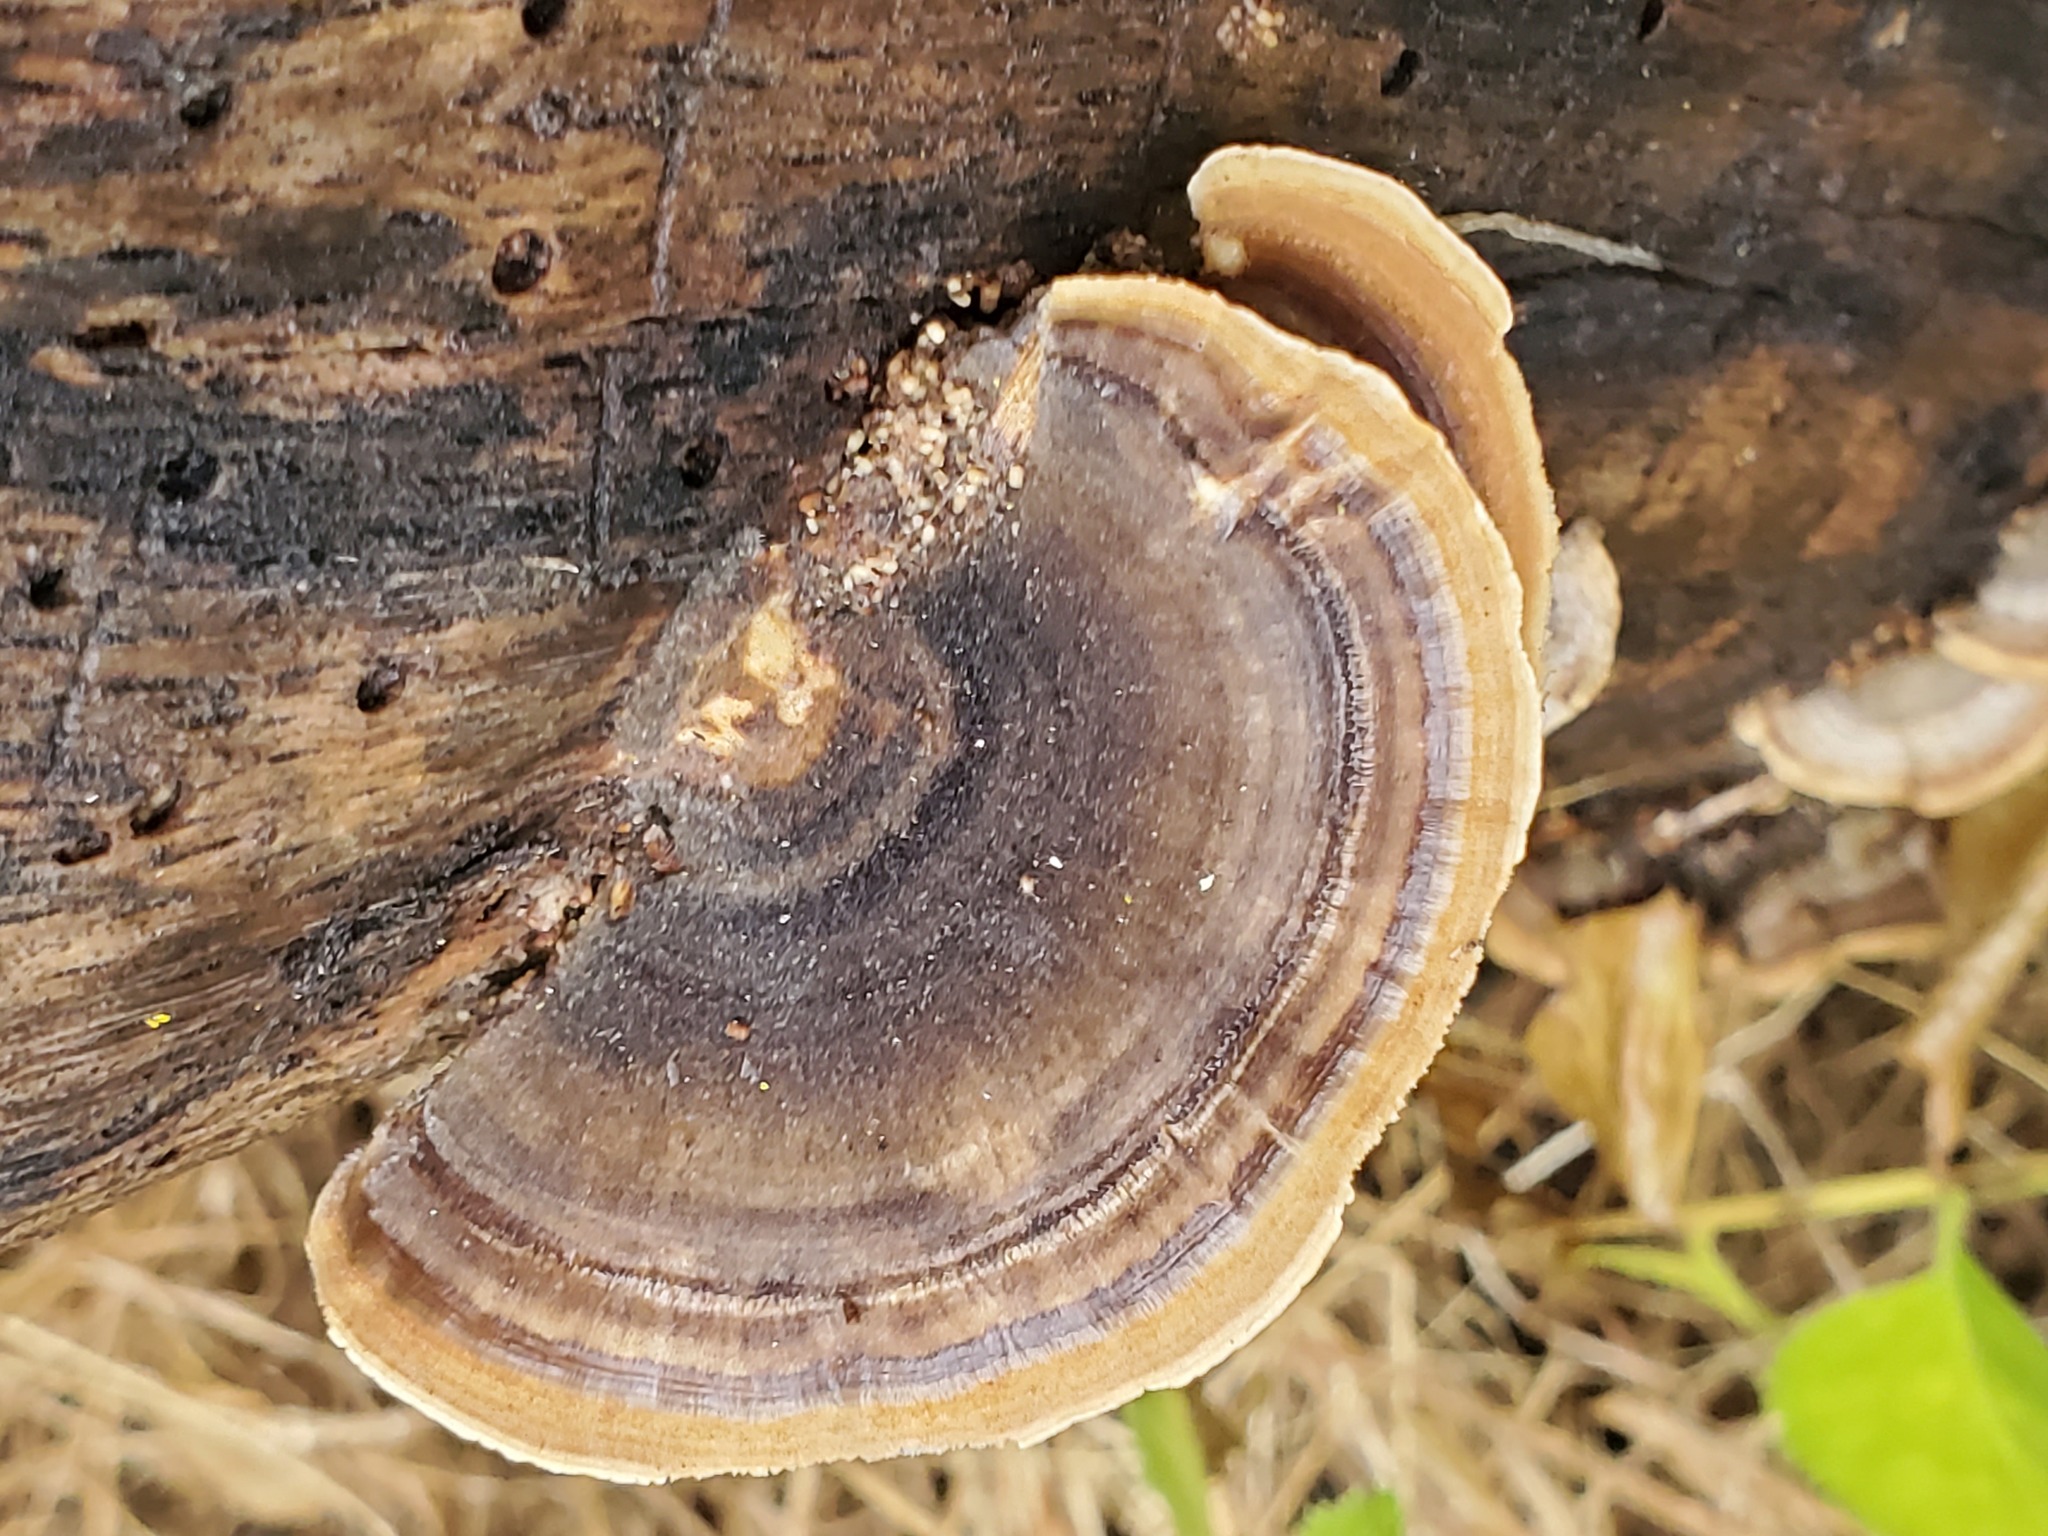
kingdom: Fungi
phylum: Basidiomycota
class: Agaricomycetes
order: Polyporales
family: Polyporaceae
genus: Trametes
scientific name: Trametes versicolor
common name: Turkeytail
